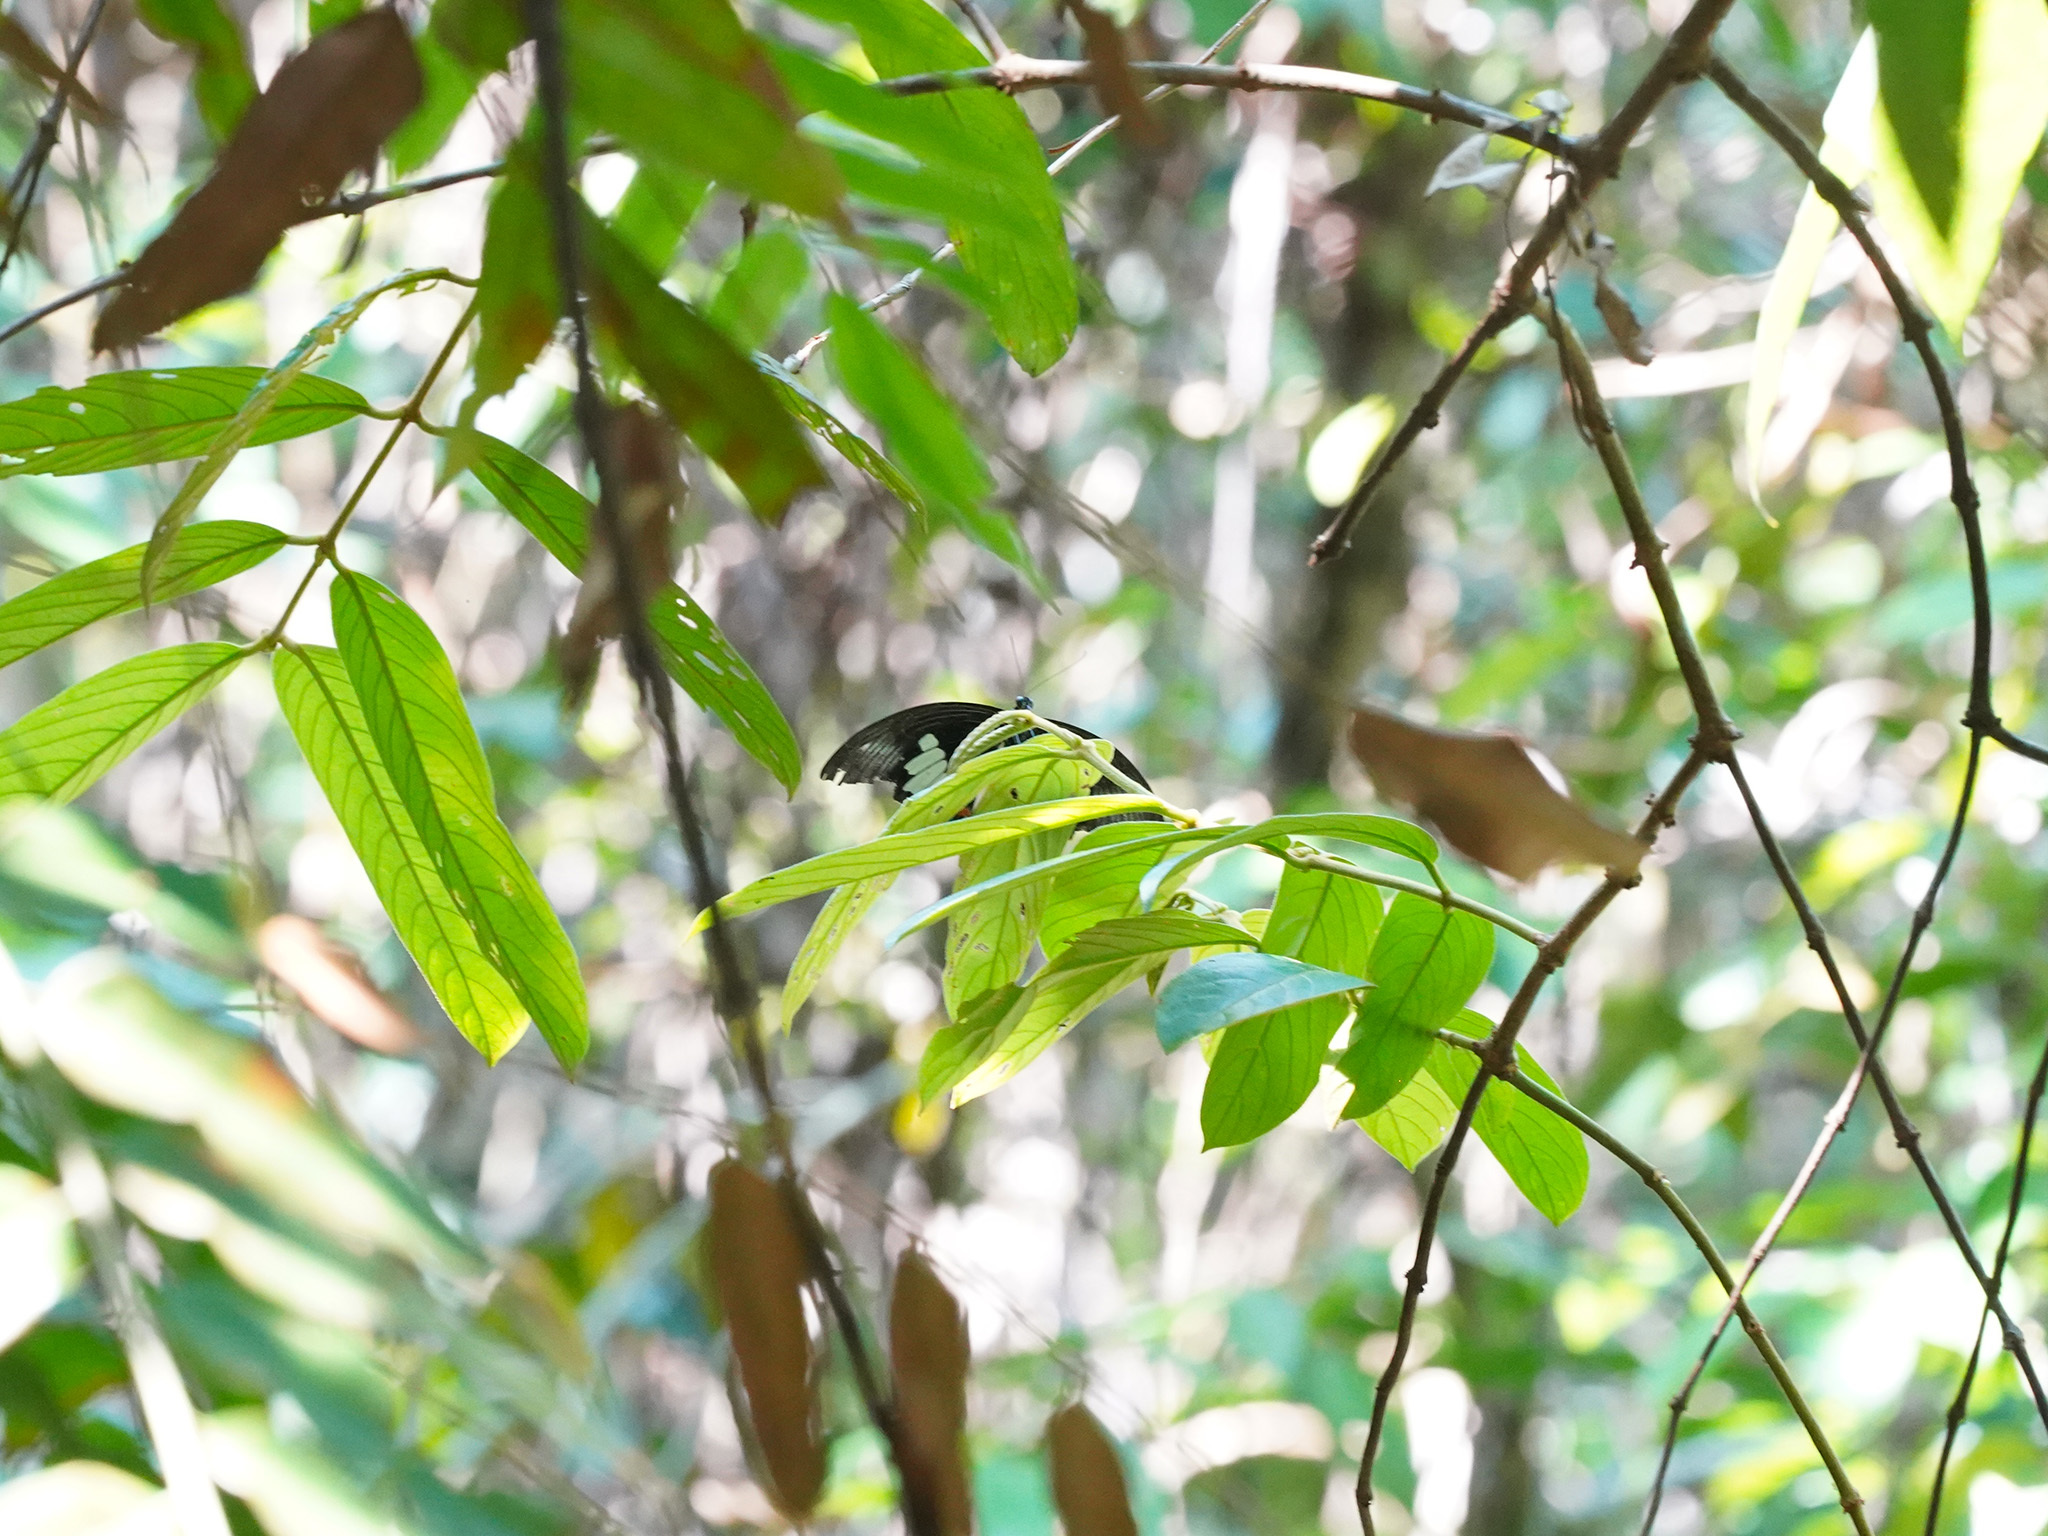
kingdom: Animalia
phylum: Arthropoda
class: Insecta
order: Lepidoptera
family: Papilionidae
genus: Papilio
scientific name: Papilio iswara
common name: Great helen swallowtail
